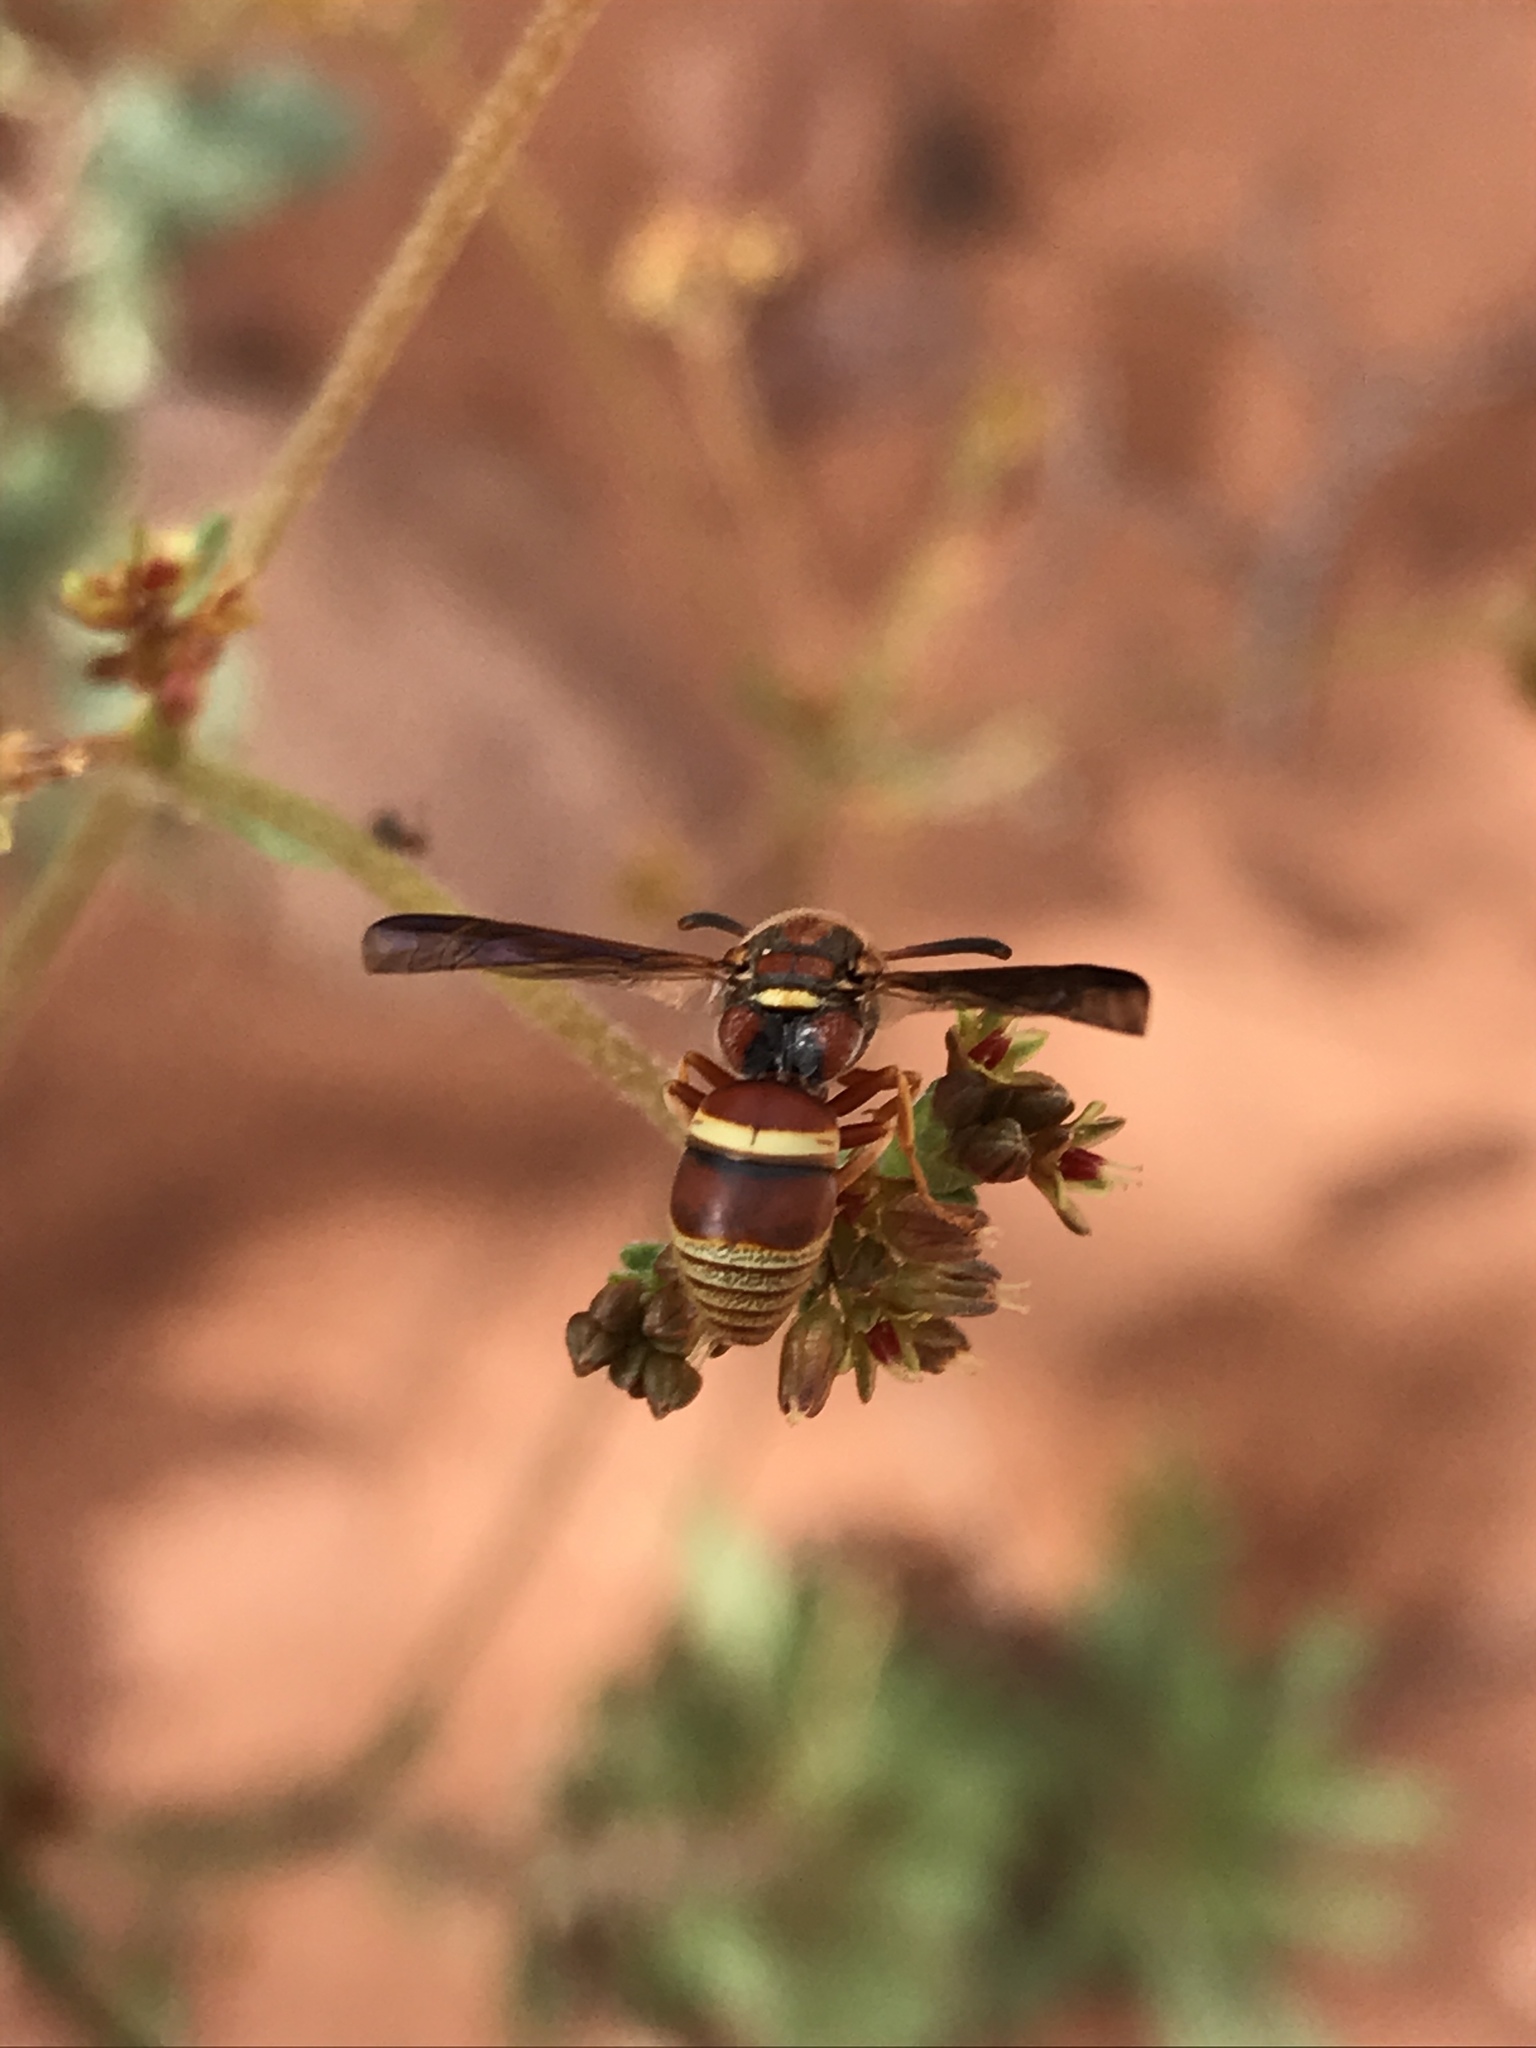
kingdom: Animalia
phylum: Arthropoda
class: Insecta
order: Hymenoptera
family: Eumenidae
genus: Euodynerus
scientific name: Euodynerus pratensis
